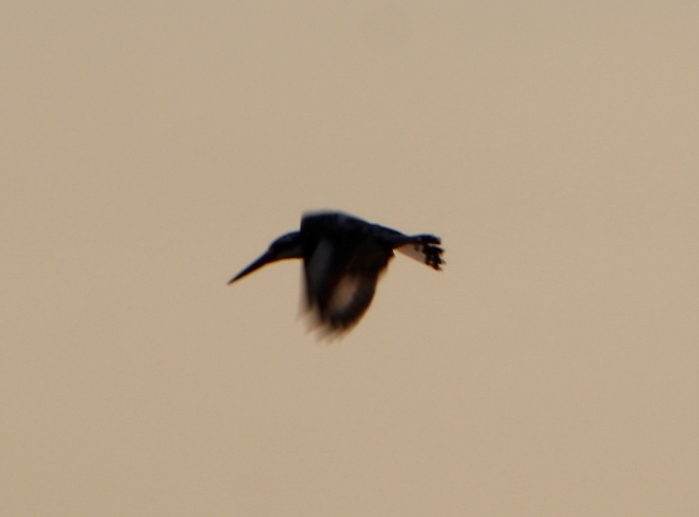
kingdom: Animalia
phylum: Chordata
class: Aves
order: Coraciiformes
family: Alcedinidae
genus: Ceryle
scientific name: Ceryle rudis
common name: Pied kingfisher
